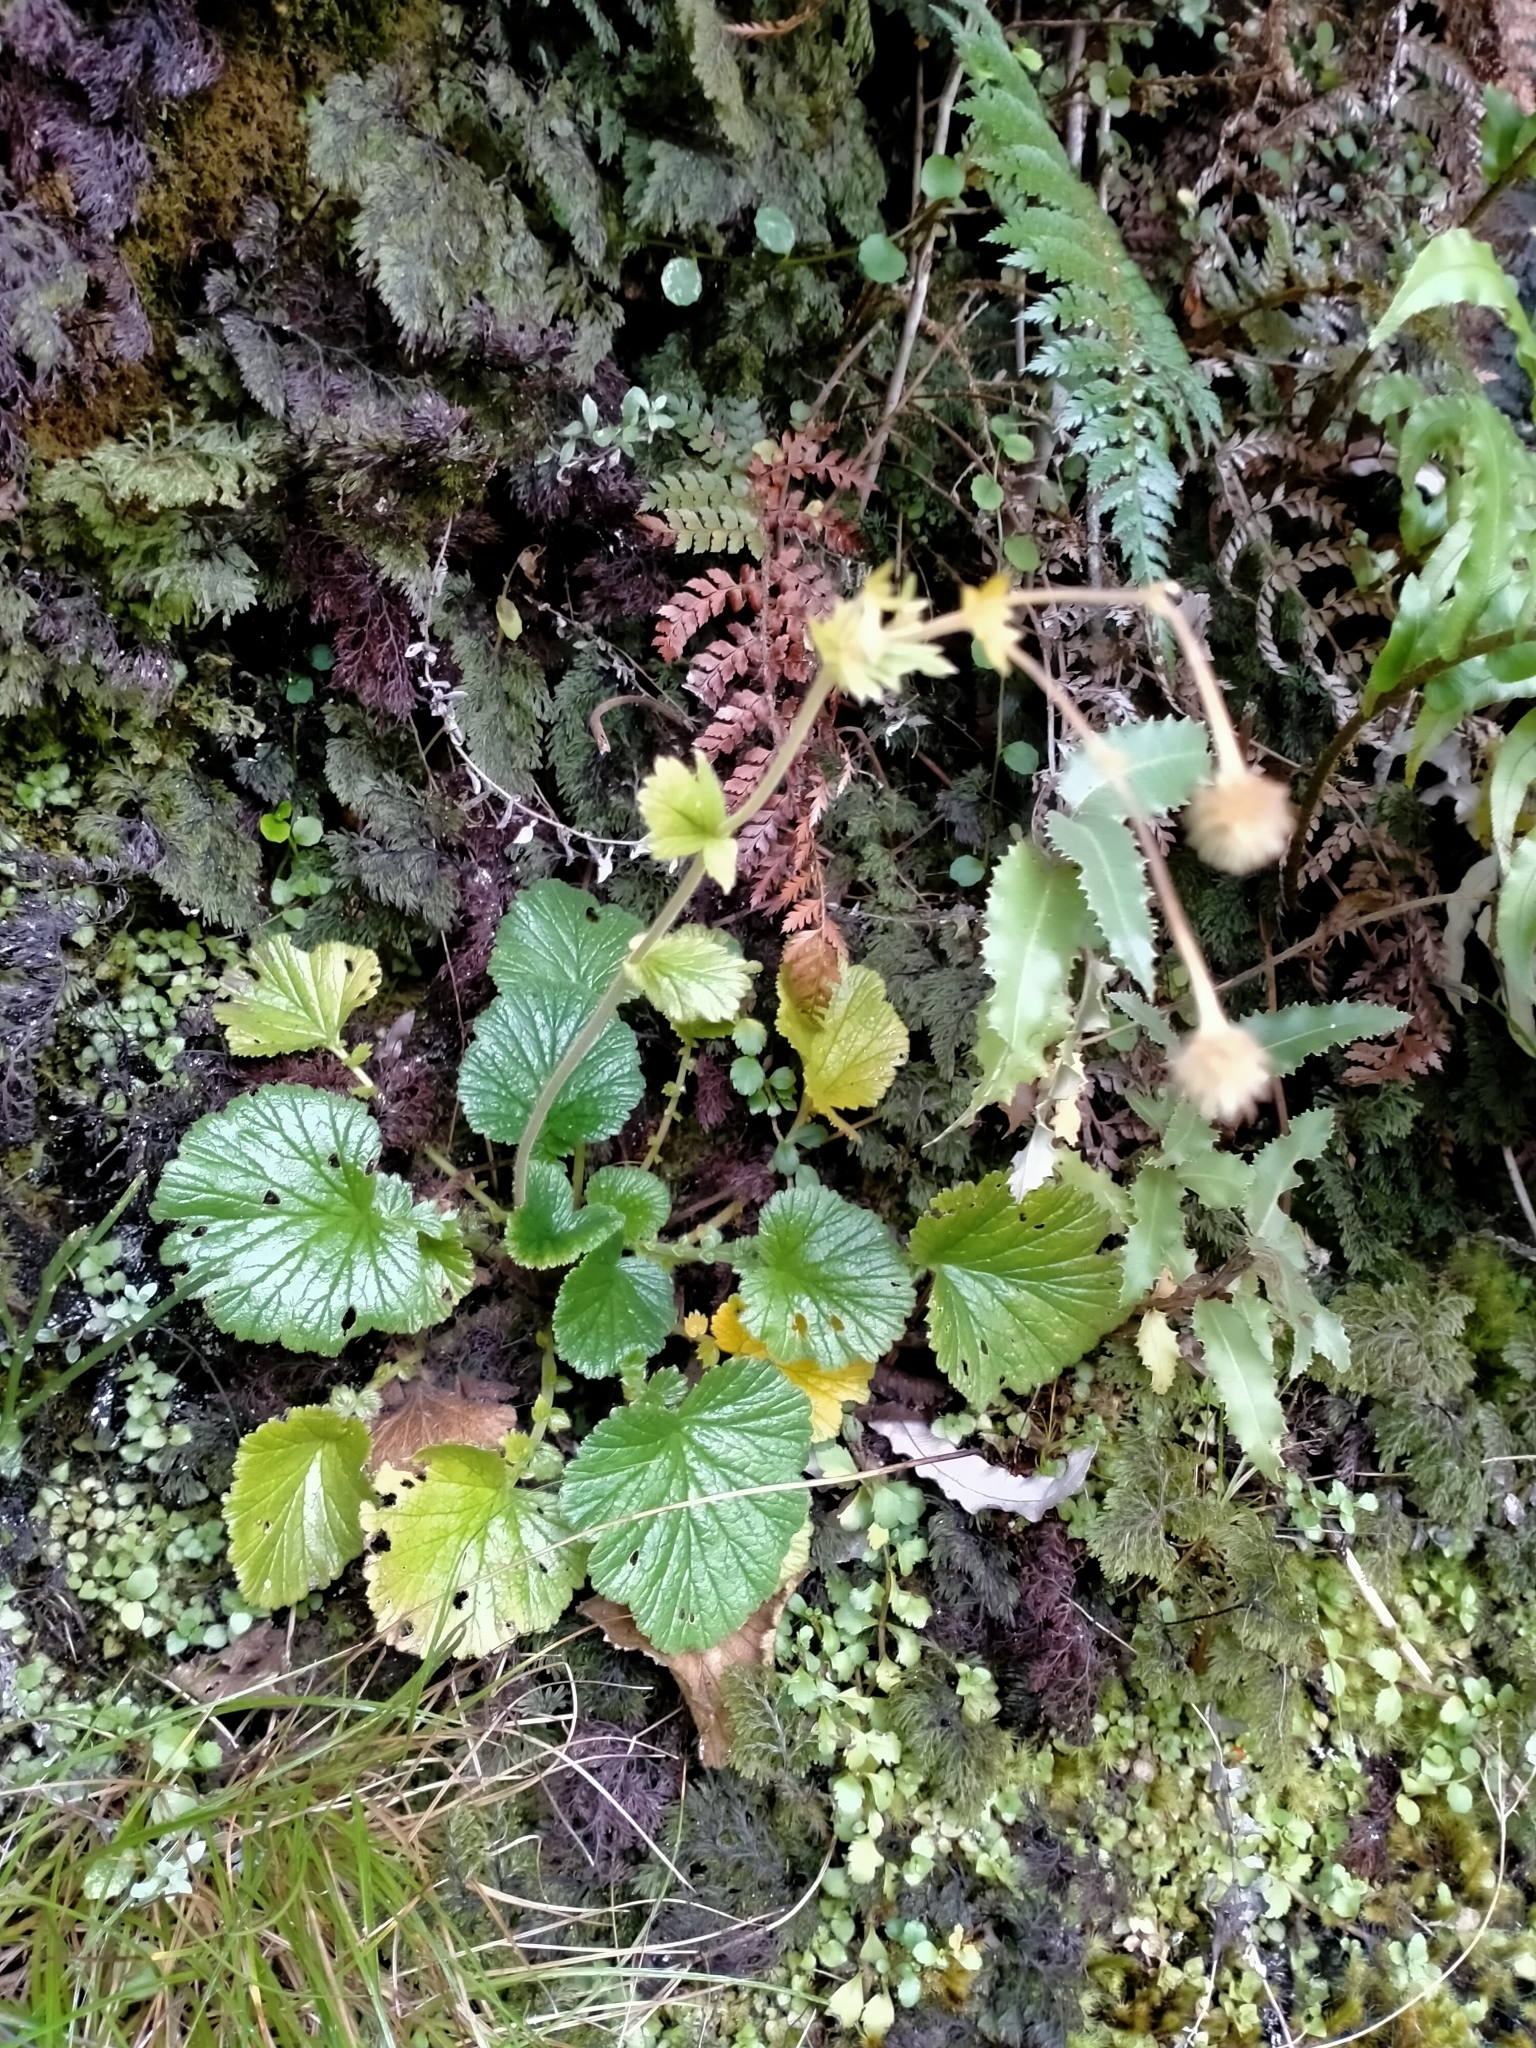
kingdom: Plantae
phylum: Tracheophyta
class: Magnoliopsida
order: Rosales
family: Rosaceae
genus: Geum
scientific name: Geum cockaynei
